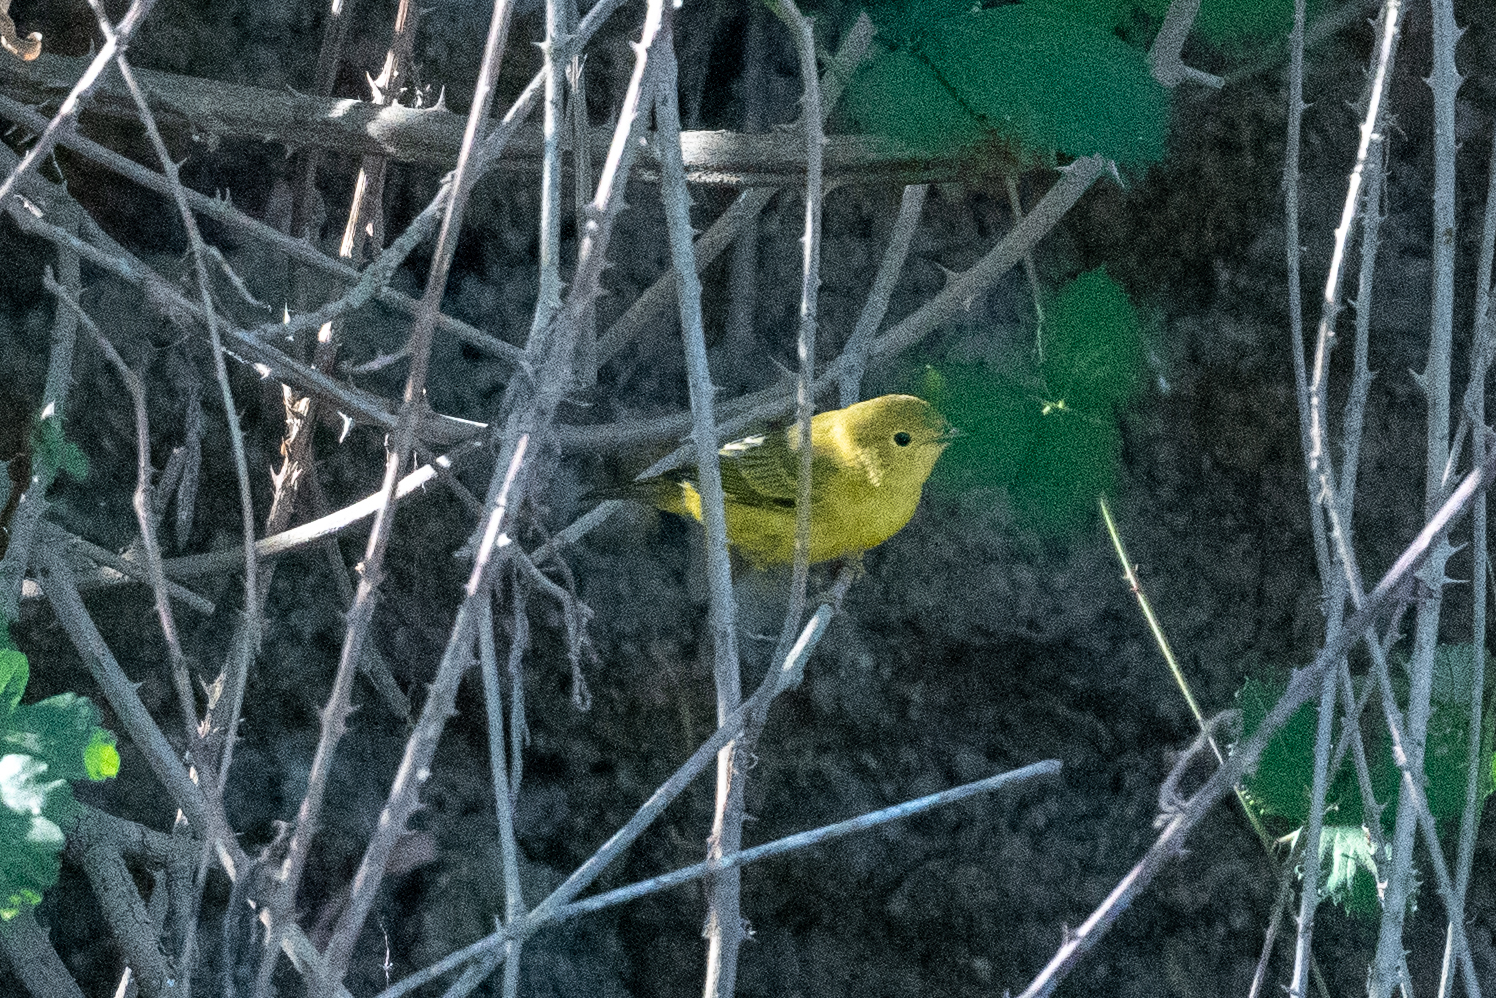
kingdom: Animalia
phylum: Chordata
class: Aves
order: Passeriformes
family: Parulidae
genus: Setophaga
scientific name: Setophaga petechia
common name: Yellow warbler
